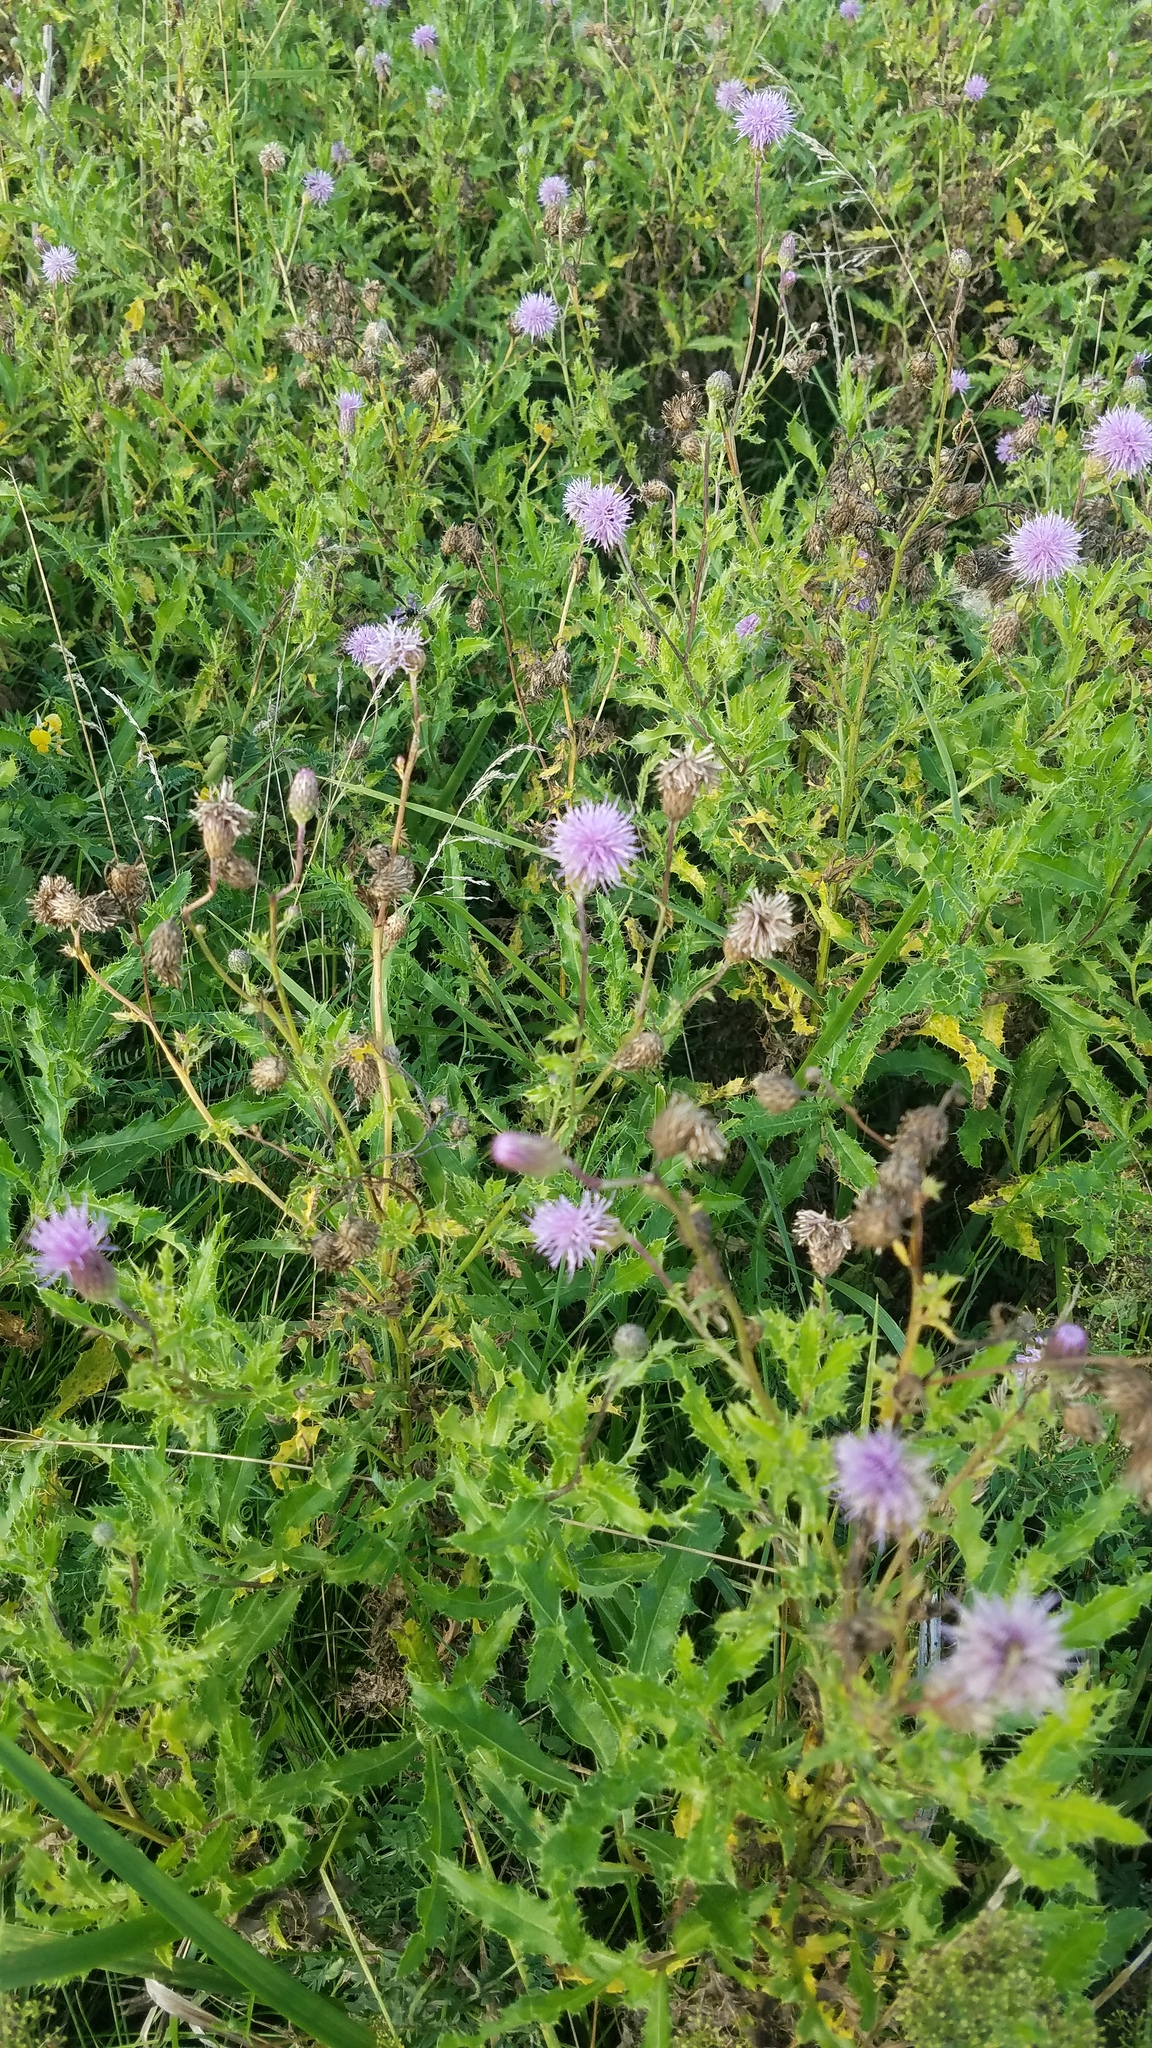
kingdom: Plantae
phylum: Tracheophyta
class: Magnoliopsida
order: Asterales
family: Asteraceae
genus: Cirsium
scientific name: Cirsium arvense
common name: Creeping thistle
